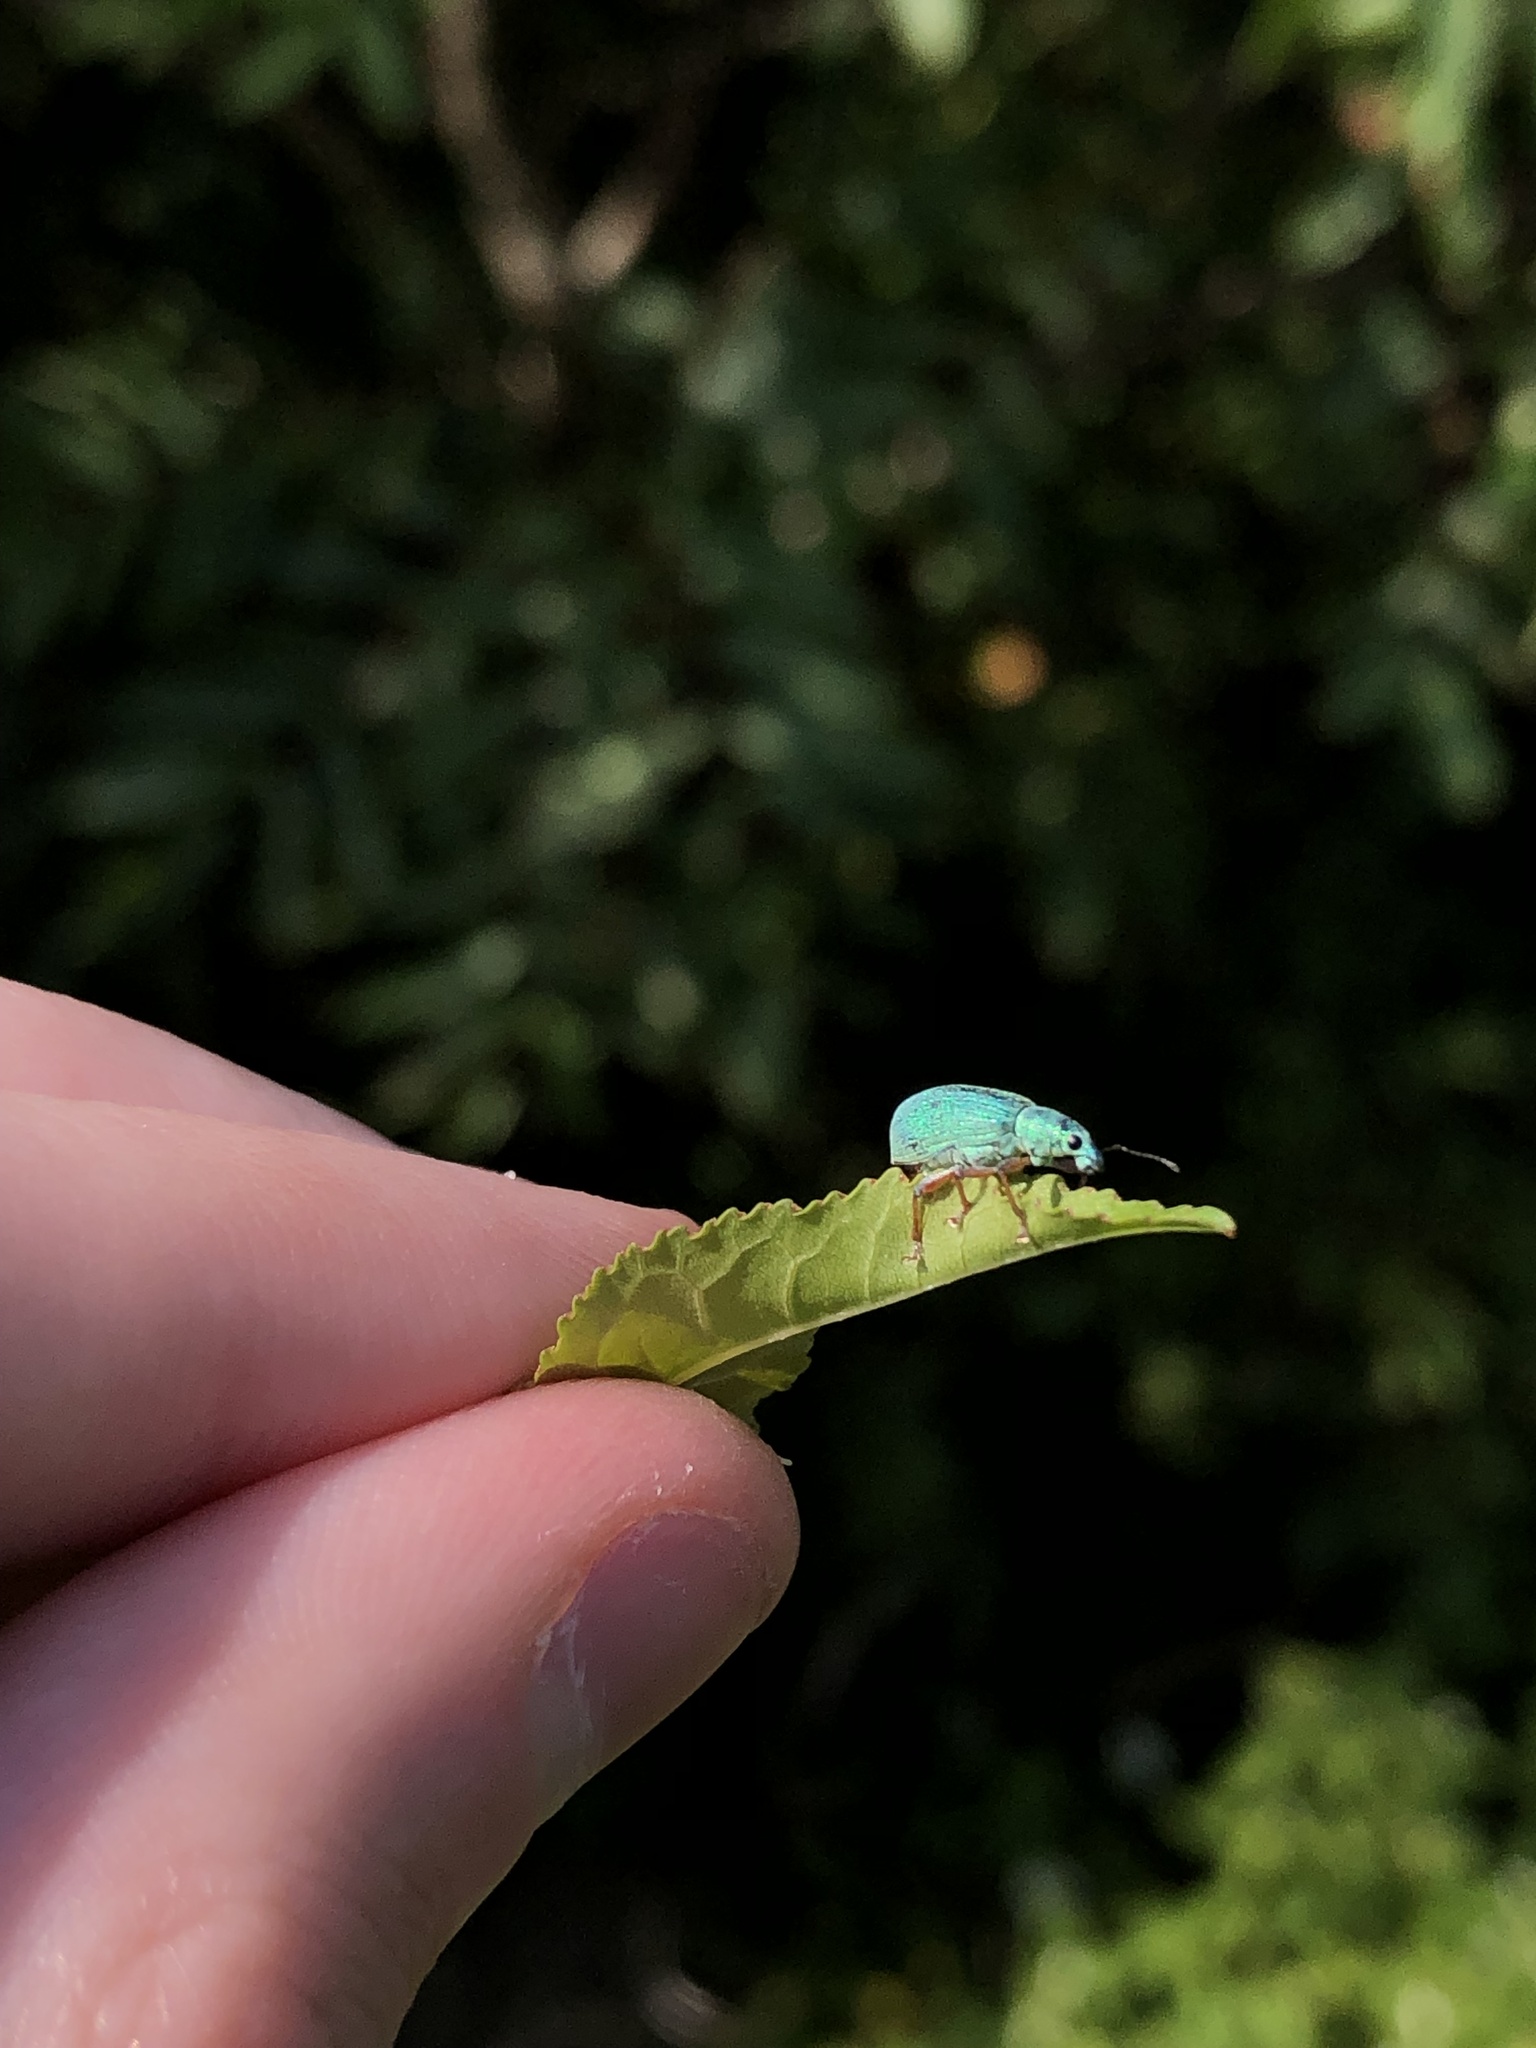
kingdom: Animalia
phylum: Arthropoda
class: Insecta
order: Coleoptera
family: Curculionidae
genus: Polydrusus
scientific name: Polydrusus formosus
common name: Weevil
